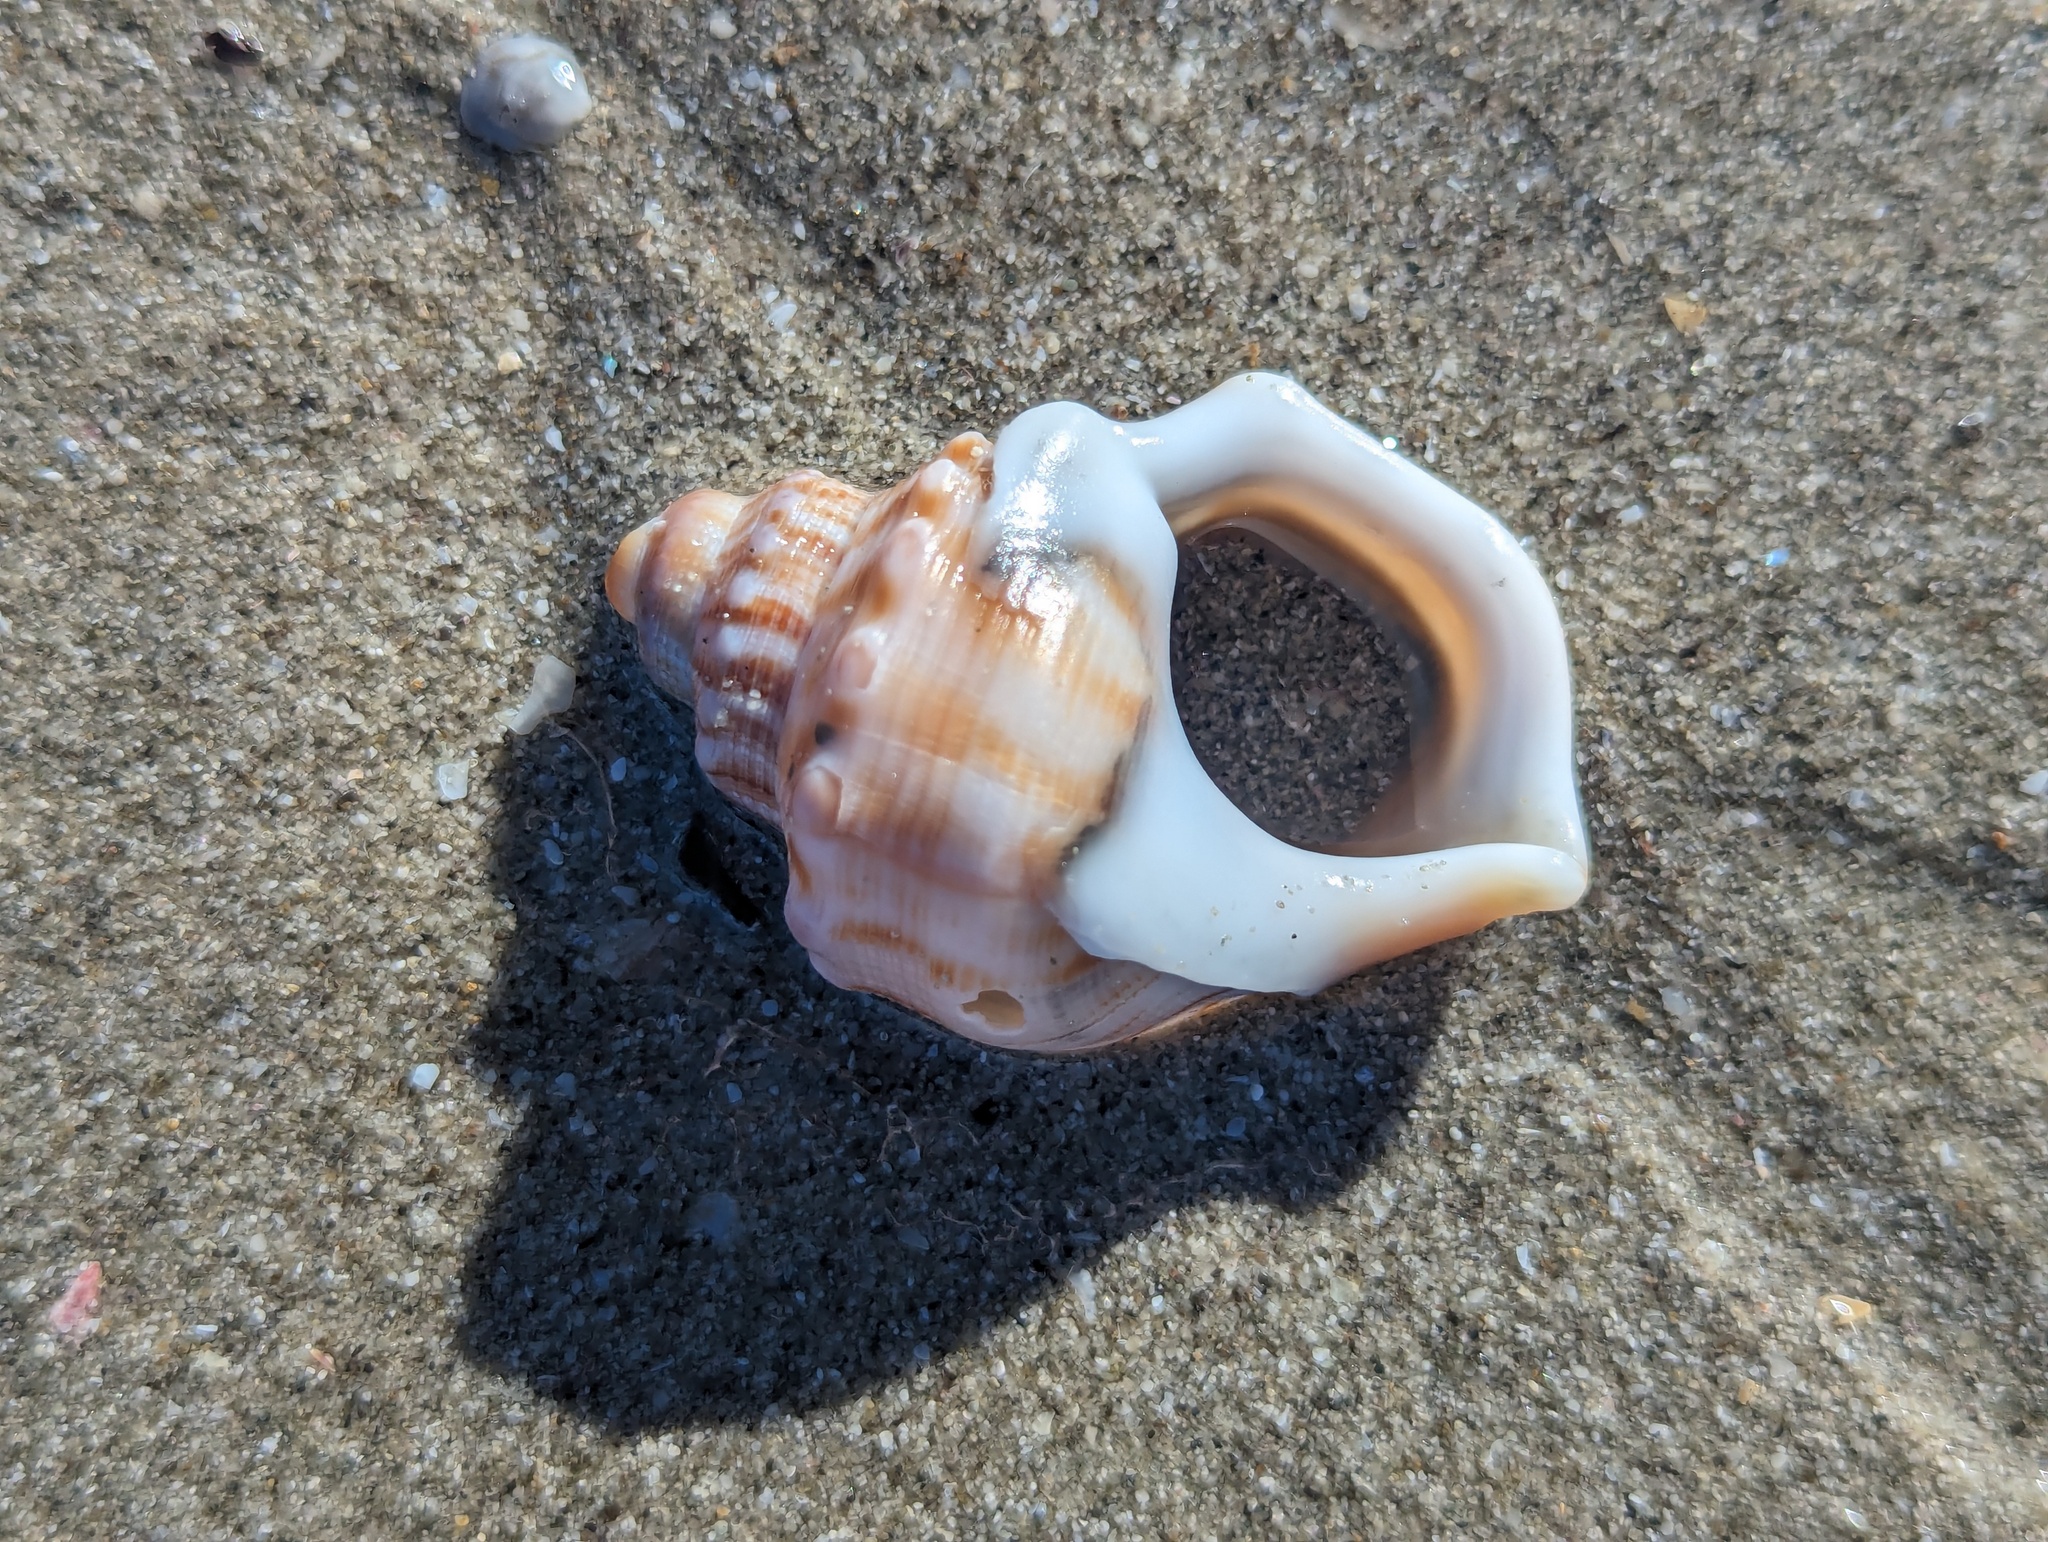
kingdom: Animalia
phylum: Mollusca
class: Gastropoda
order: Littorinimorpha
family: Struthiolariidae
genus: Struthiolaria
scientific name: Struthiolaria papulosa
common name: Large ostrich foot
